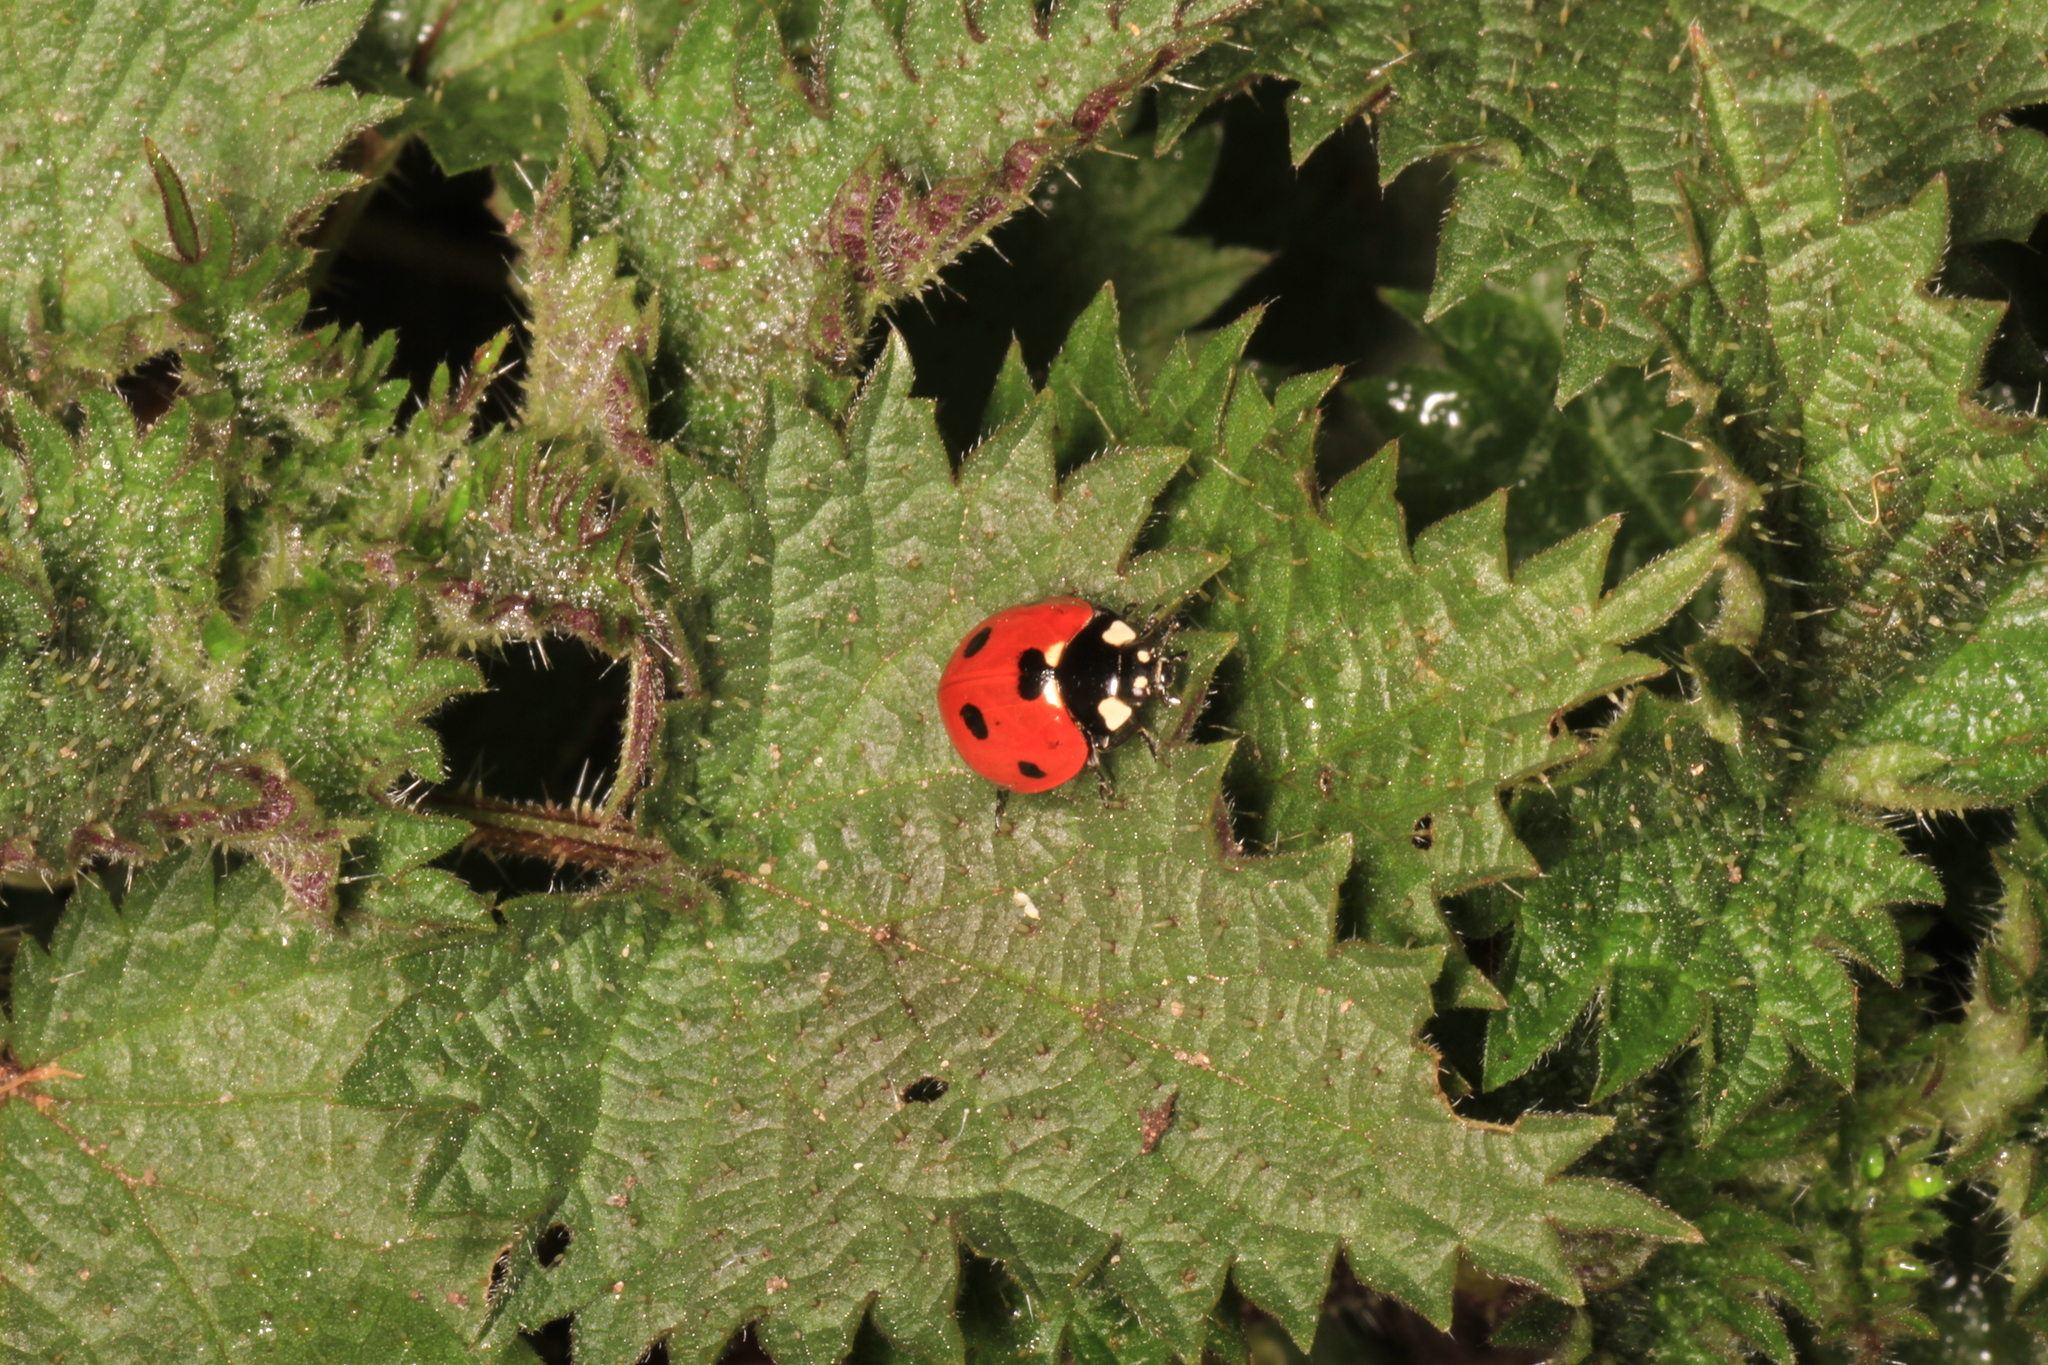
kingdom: Animalia
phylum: Arthropoda
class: Insecta
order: Coleoptera
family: Coccinellidae
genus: Coccinella
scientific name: Coccinella septempunctata
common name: Sevenspotted lady beetle
